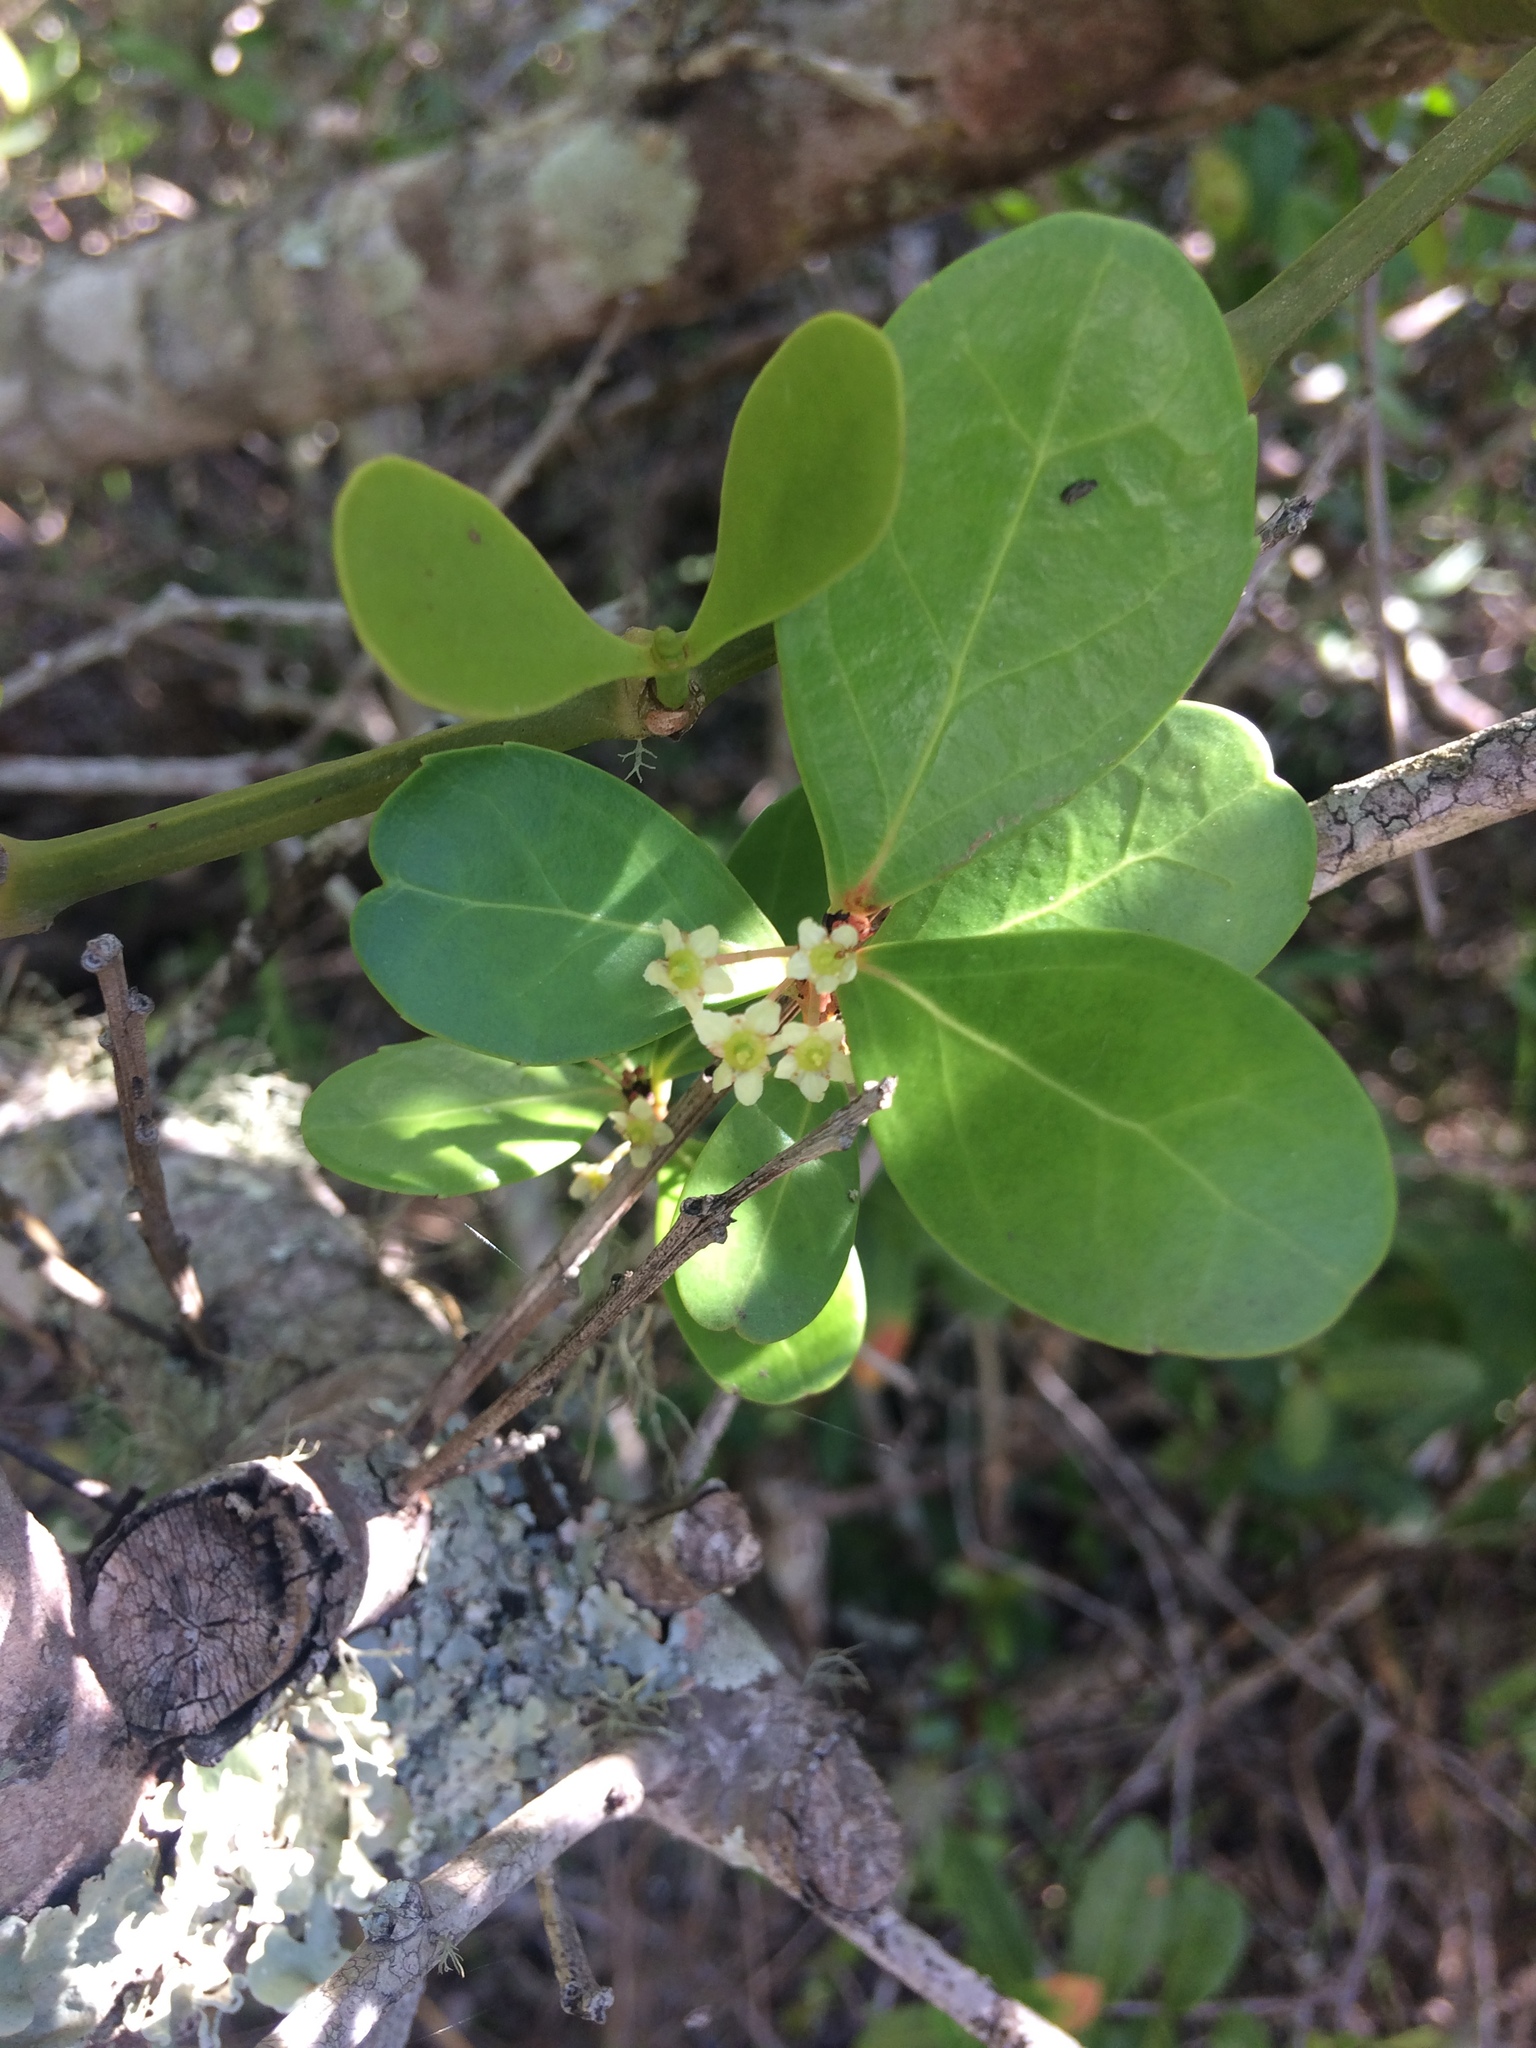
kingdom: Plantae
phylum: Tracheophyta
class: Magnoliopsida
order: Celastrales
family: Celastraceae
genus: Gymnosporia
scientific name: Gymnosporia procumbens
